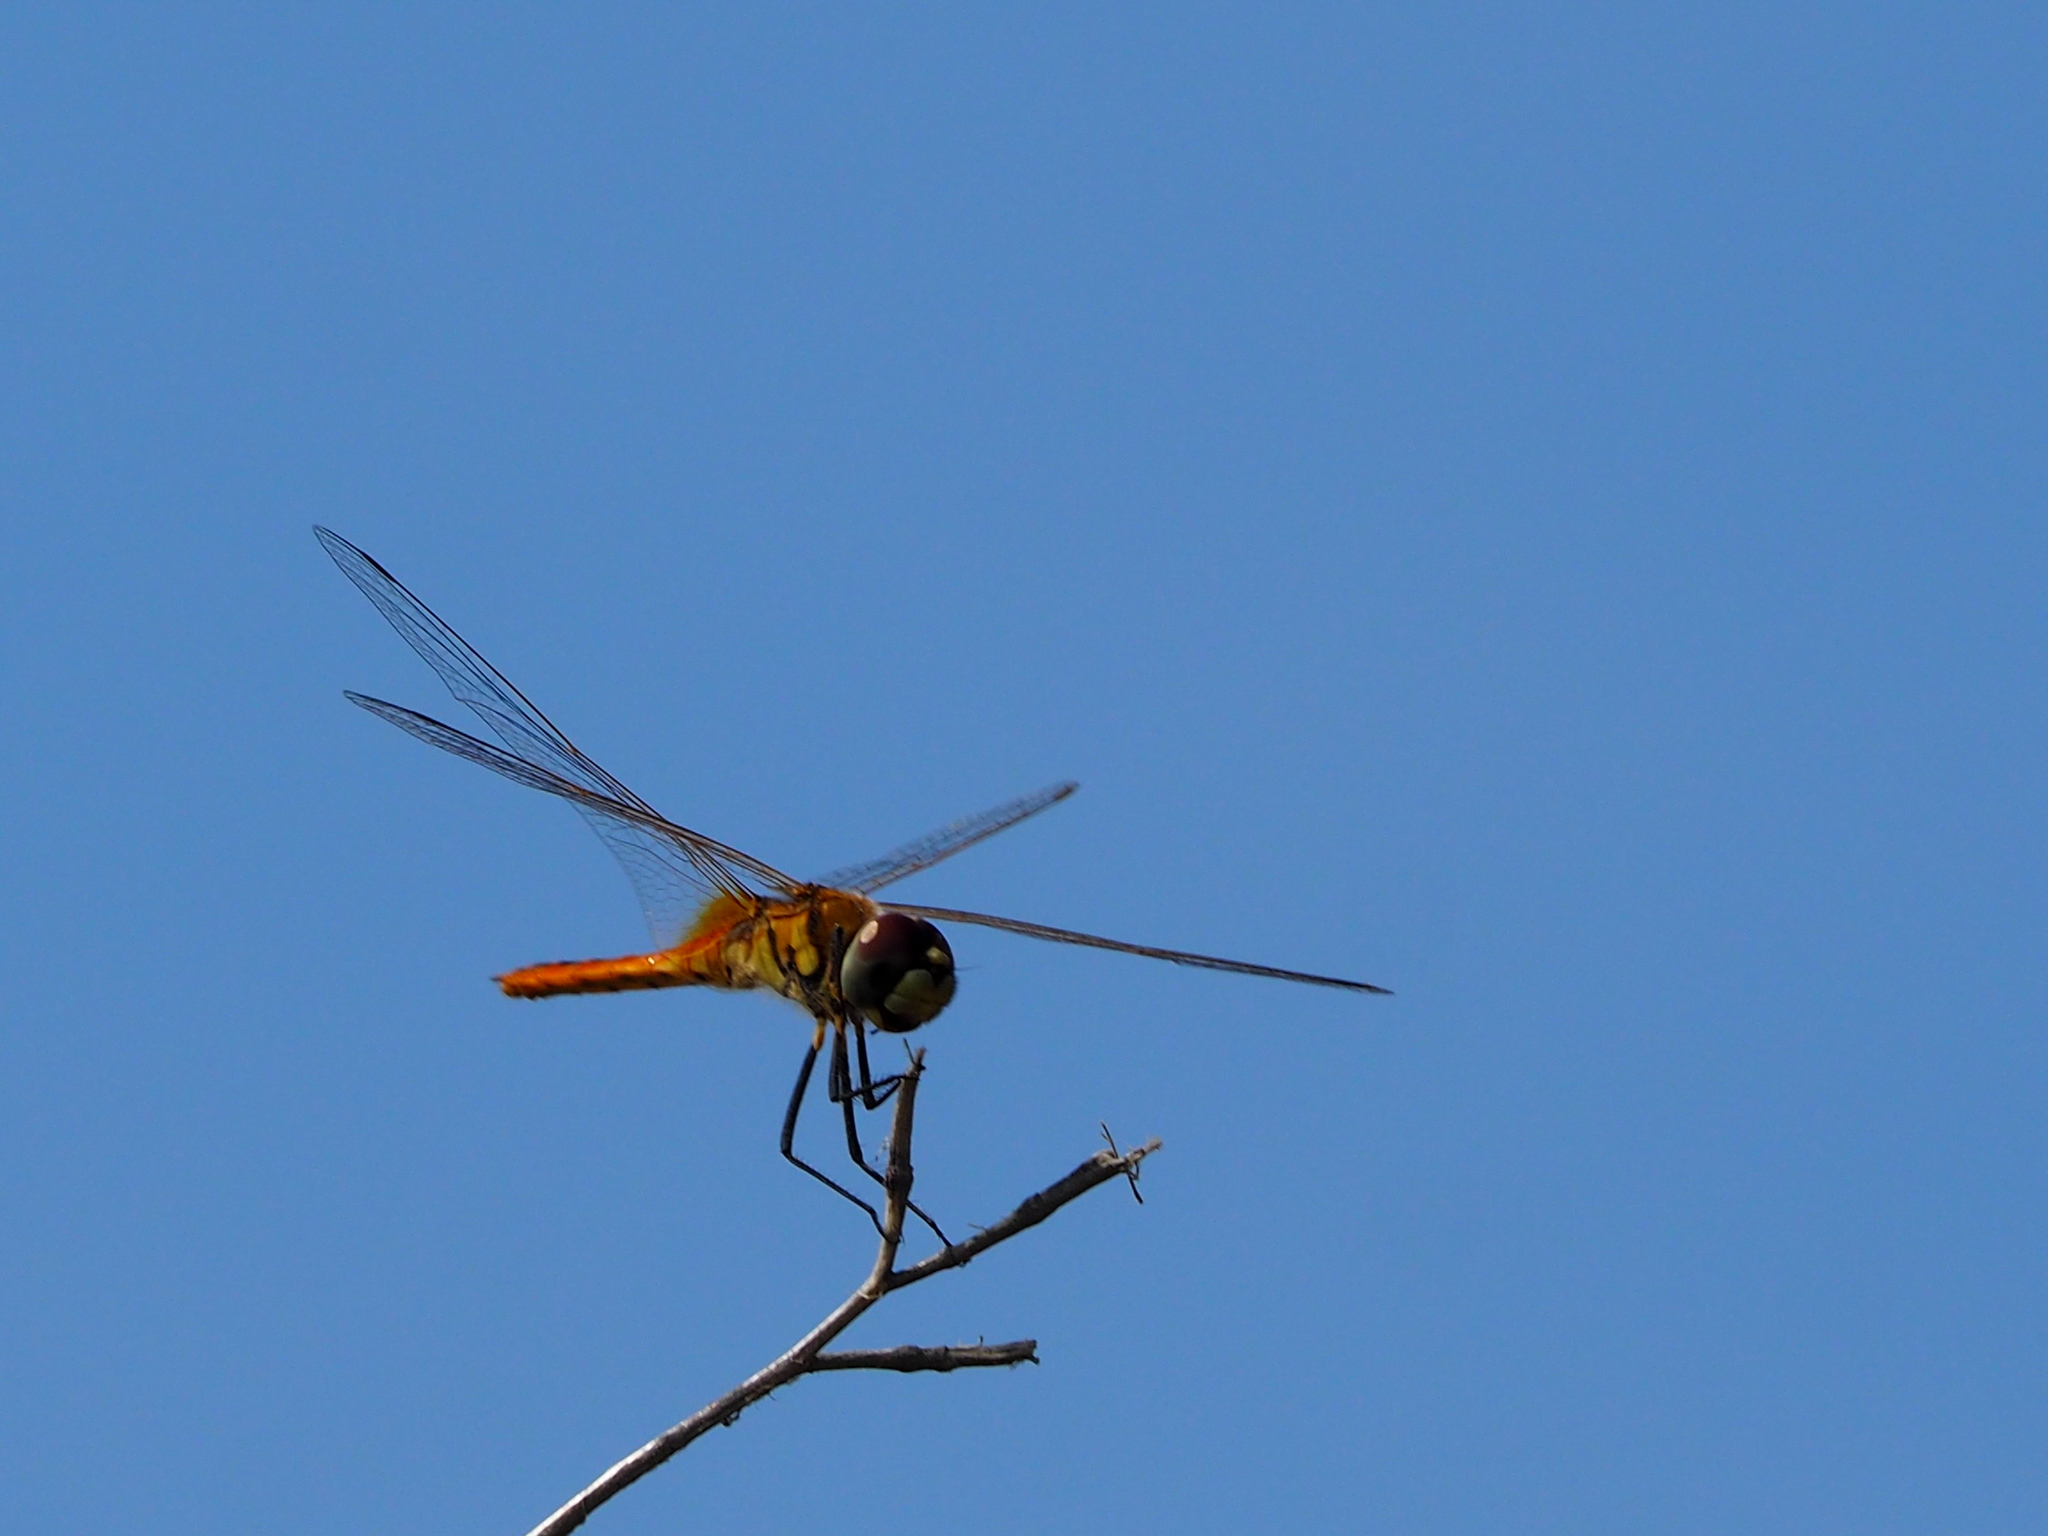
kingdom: Animalia
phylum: Arthropoda
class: Insecta
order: Odonata
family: Libellulidae
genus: Macrodiplax
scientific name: Macrodiplax cora
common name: Coastal glider
